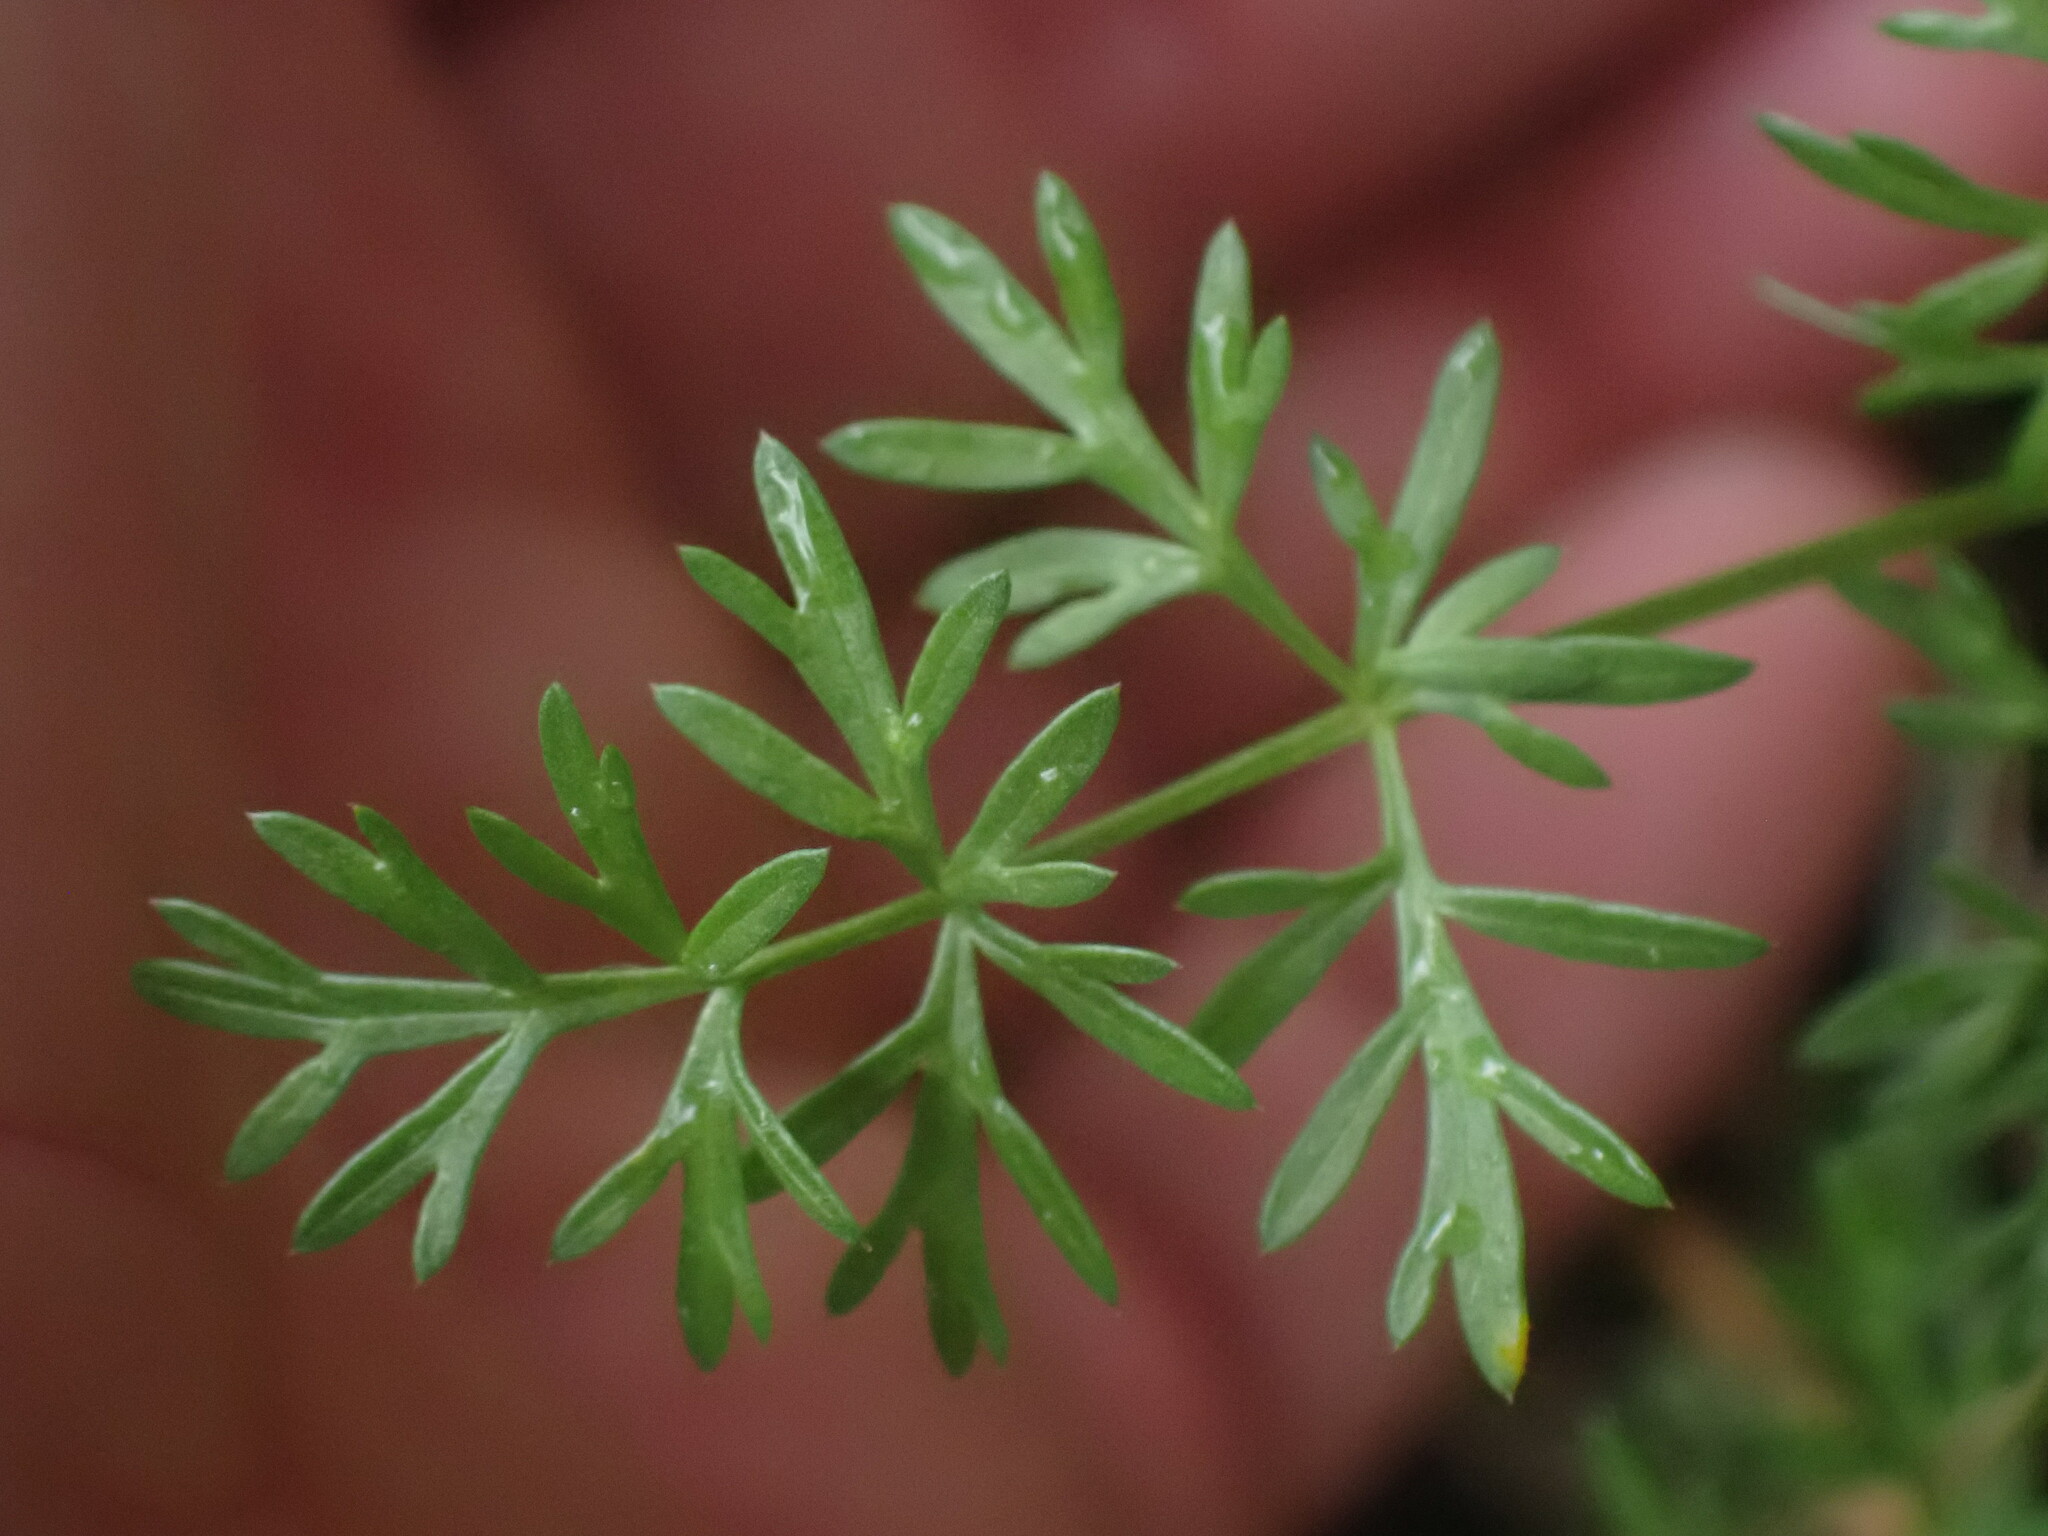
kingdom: Plantae
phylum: Tracheophyta
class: Magnoliopsida
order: Apiales
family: Apiaceae
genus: Lomatium
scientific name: Lomatium utriculatum
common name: Fine-leaf desert-parsley
